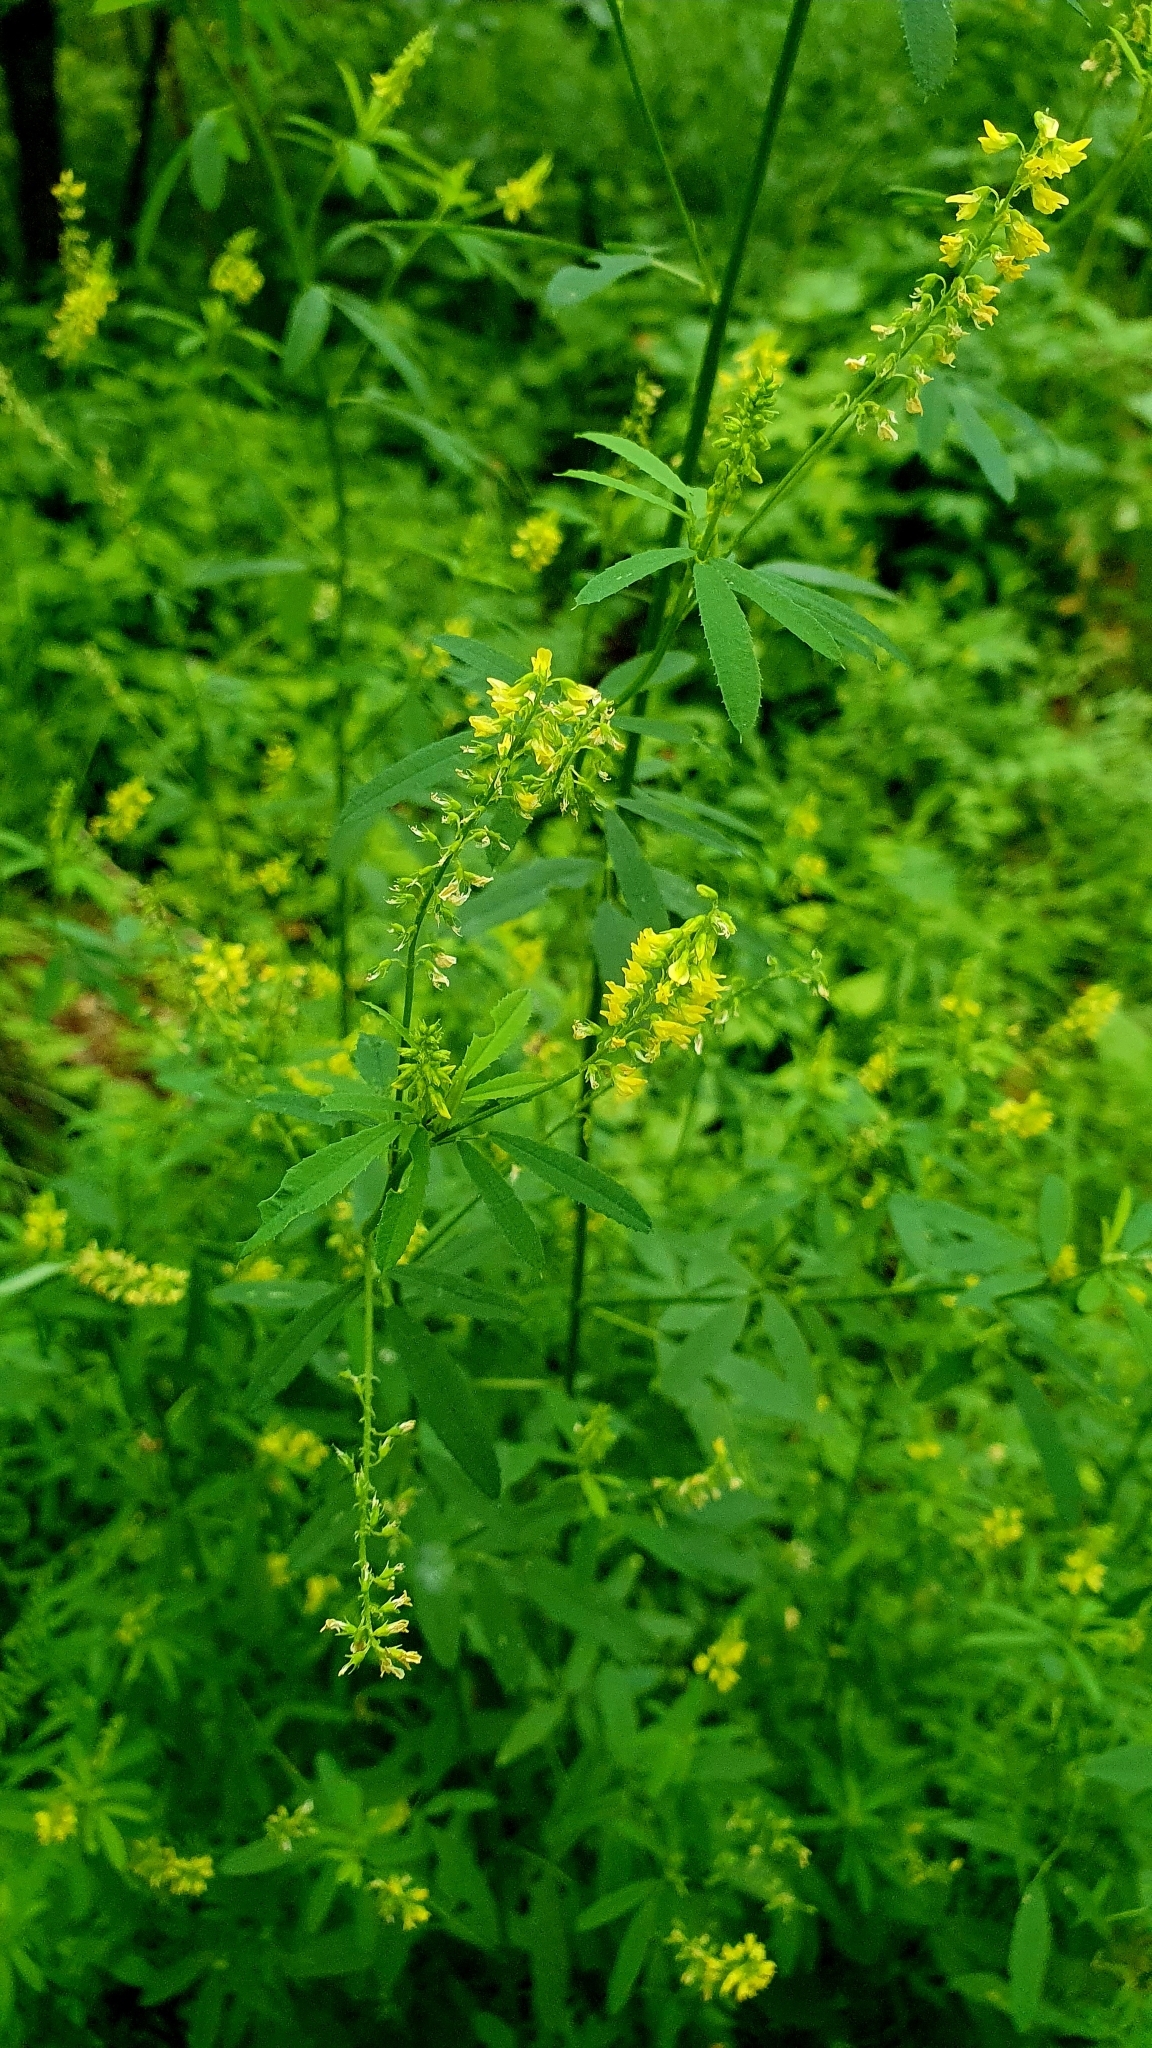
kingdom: Plantae
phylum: Tracheophyta
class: Magnoliopsida
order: Fabales
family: Fabaceae
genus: Melilotus
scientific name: Melilotus officinalis
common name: Sweetclover
